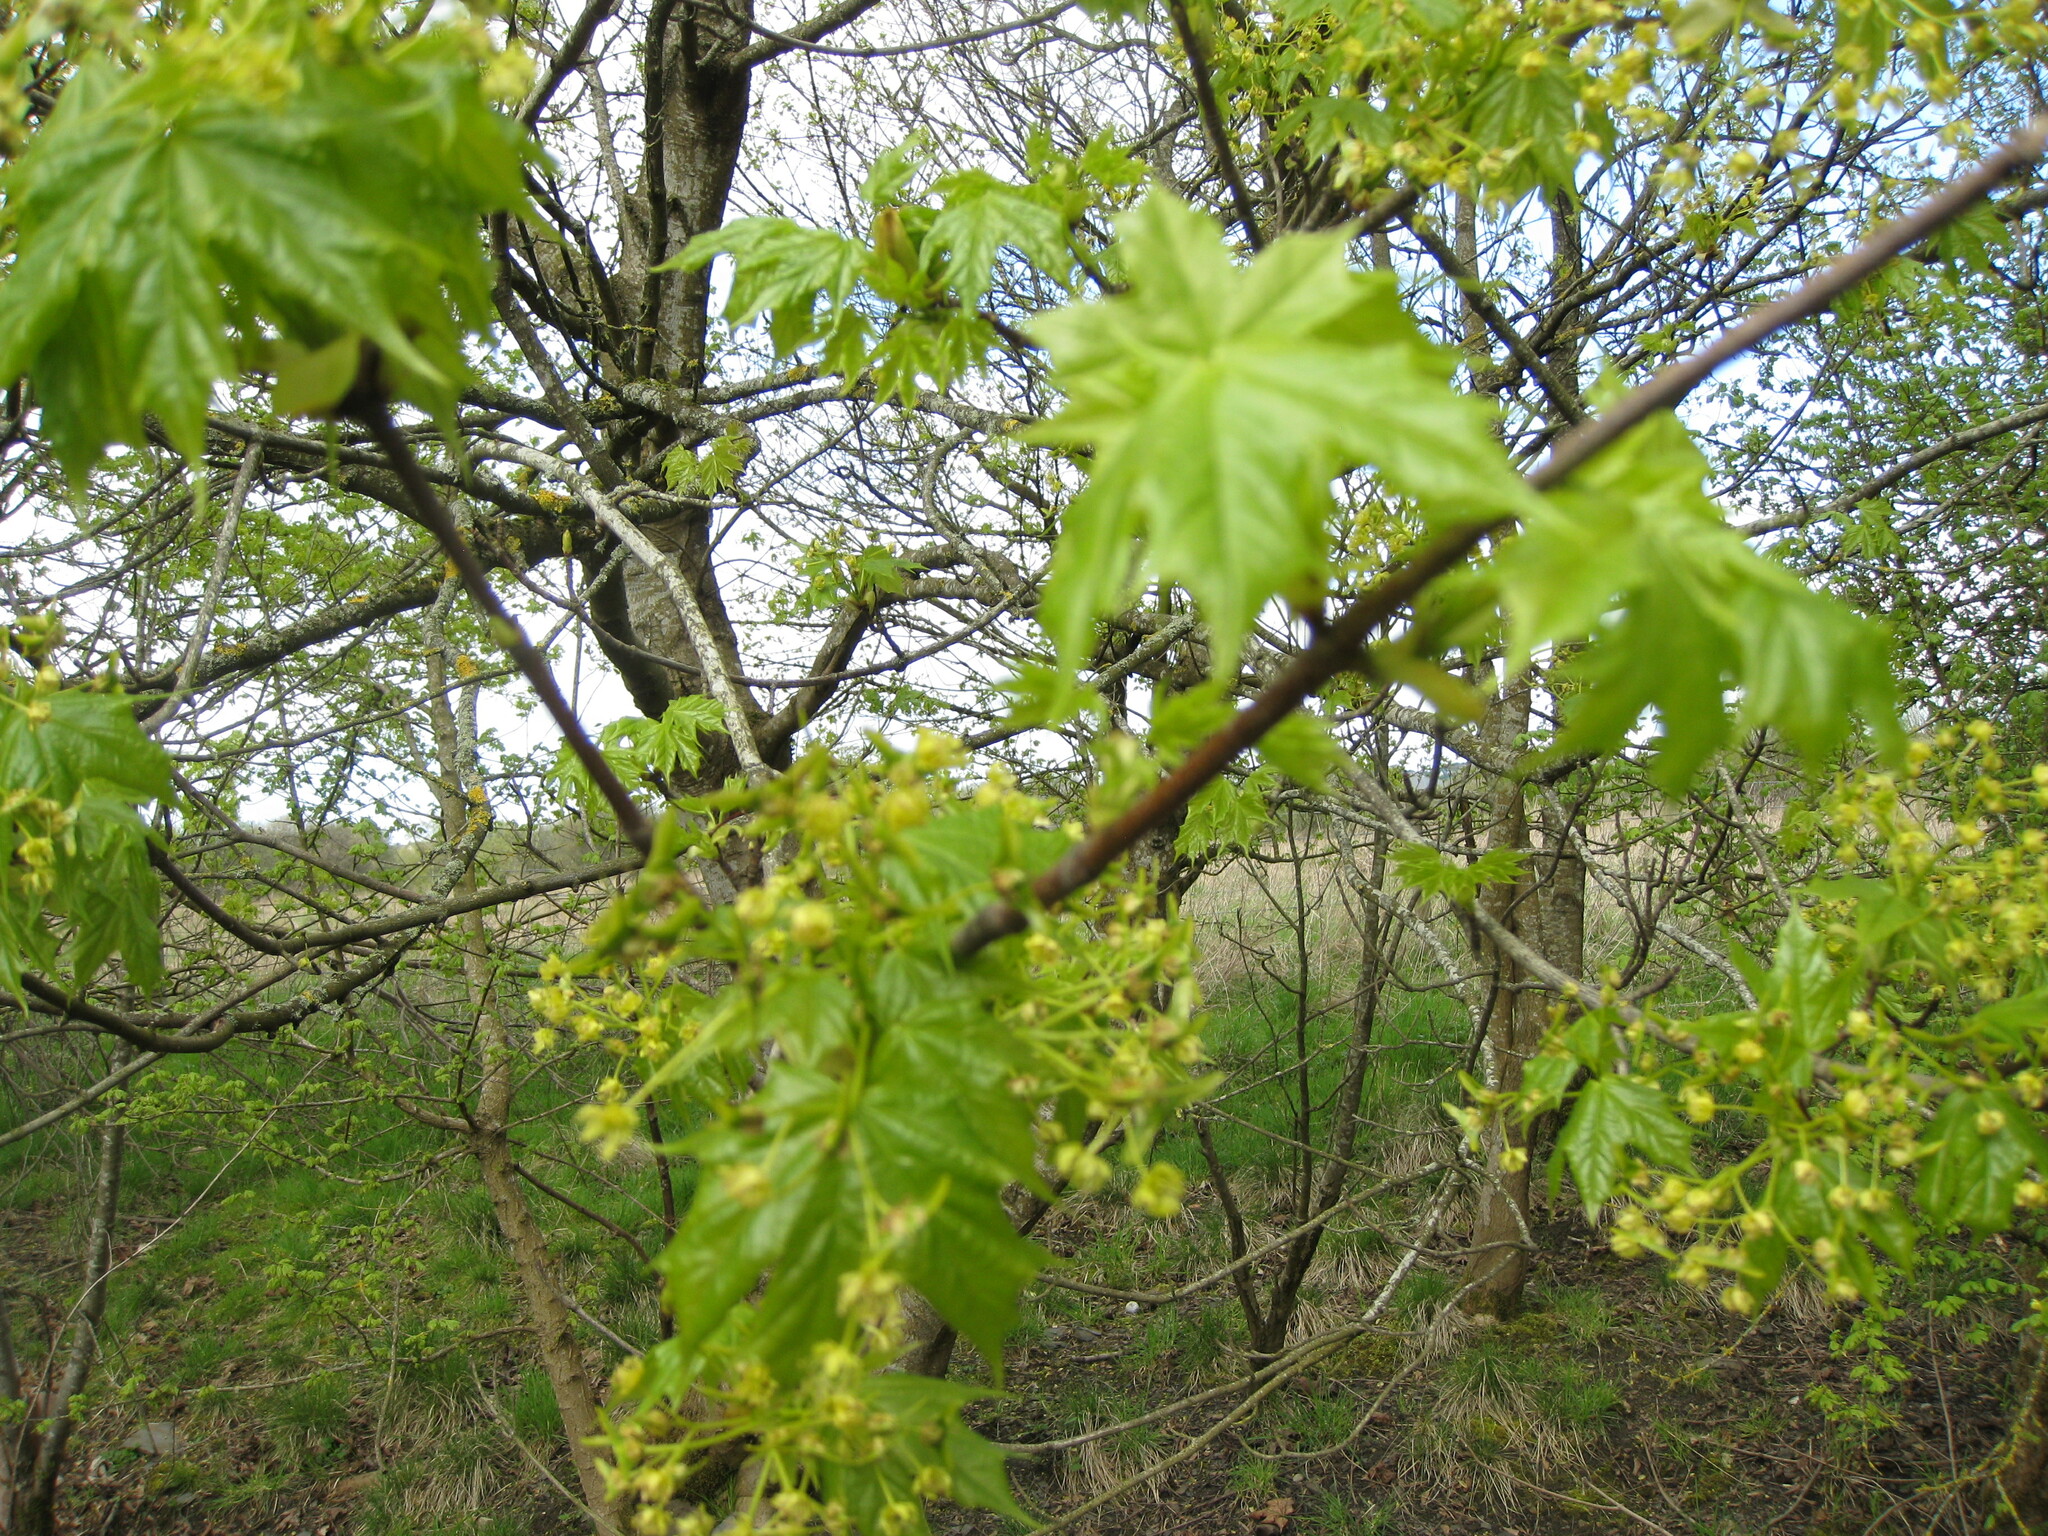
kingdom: Plantae
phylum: Tracheophyta
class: Magnoliopsida
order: Sapindales
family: Sapindaceae
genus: Acer
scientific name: Acer platanoides
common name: Norway maple
